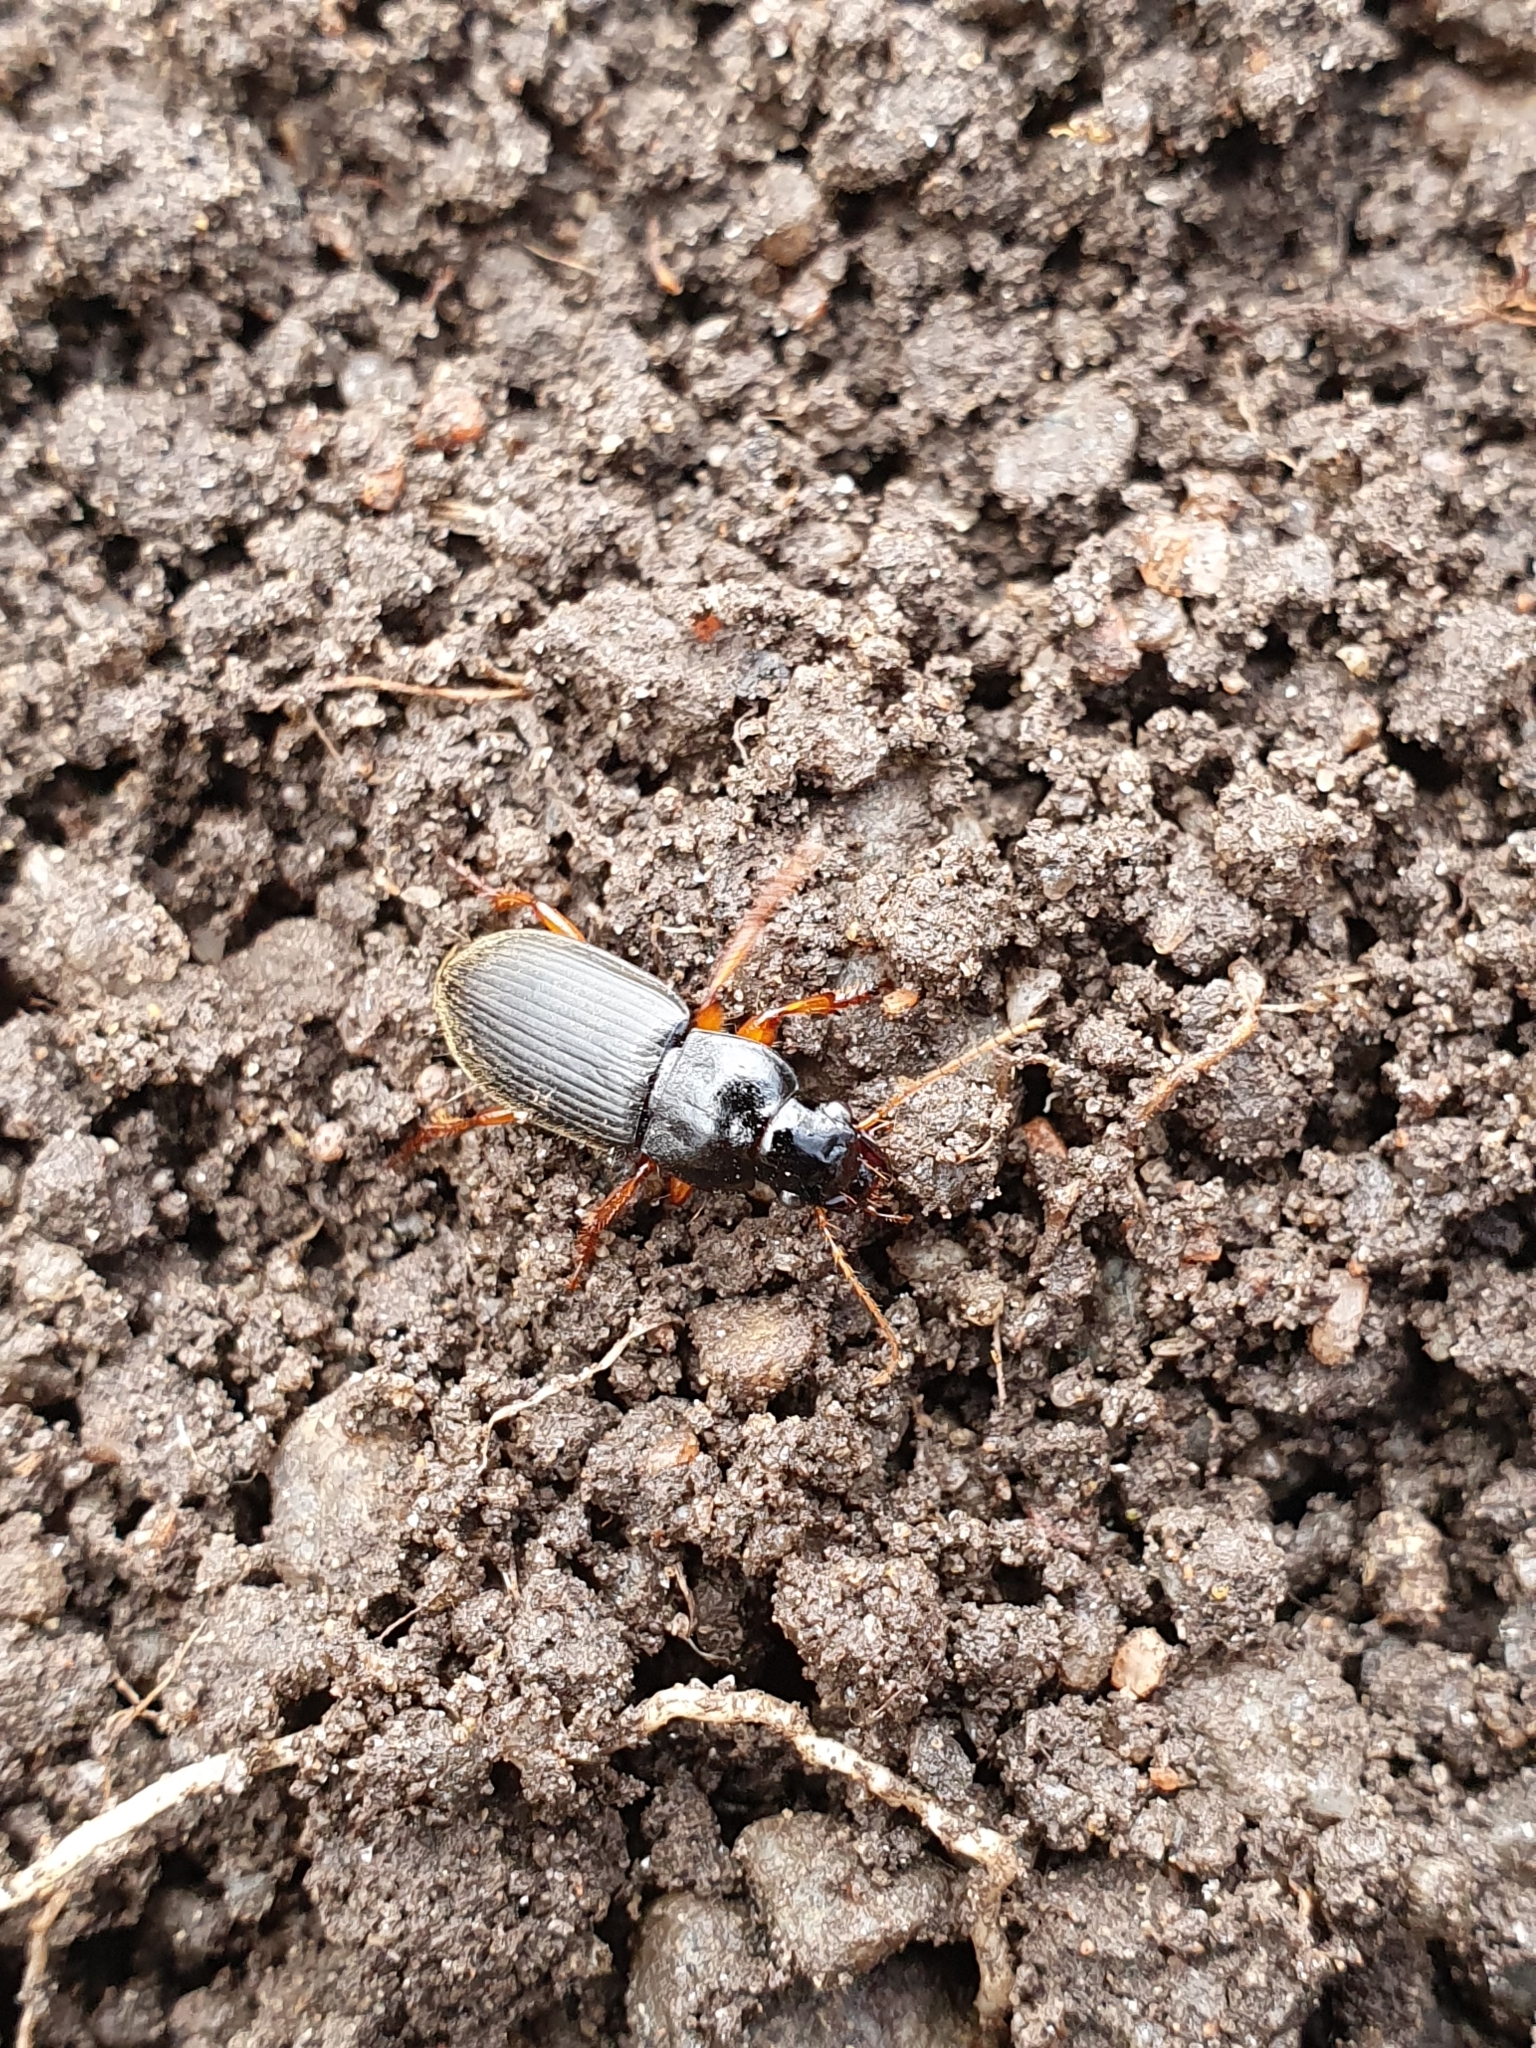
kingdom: Animalia
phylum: Arthropoda
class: Insecta
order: Coleoptera
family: Carabidae
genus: Harpalus
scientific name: Harpalus rufipes
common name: Strawberry harp ground beetle
